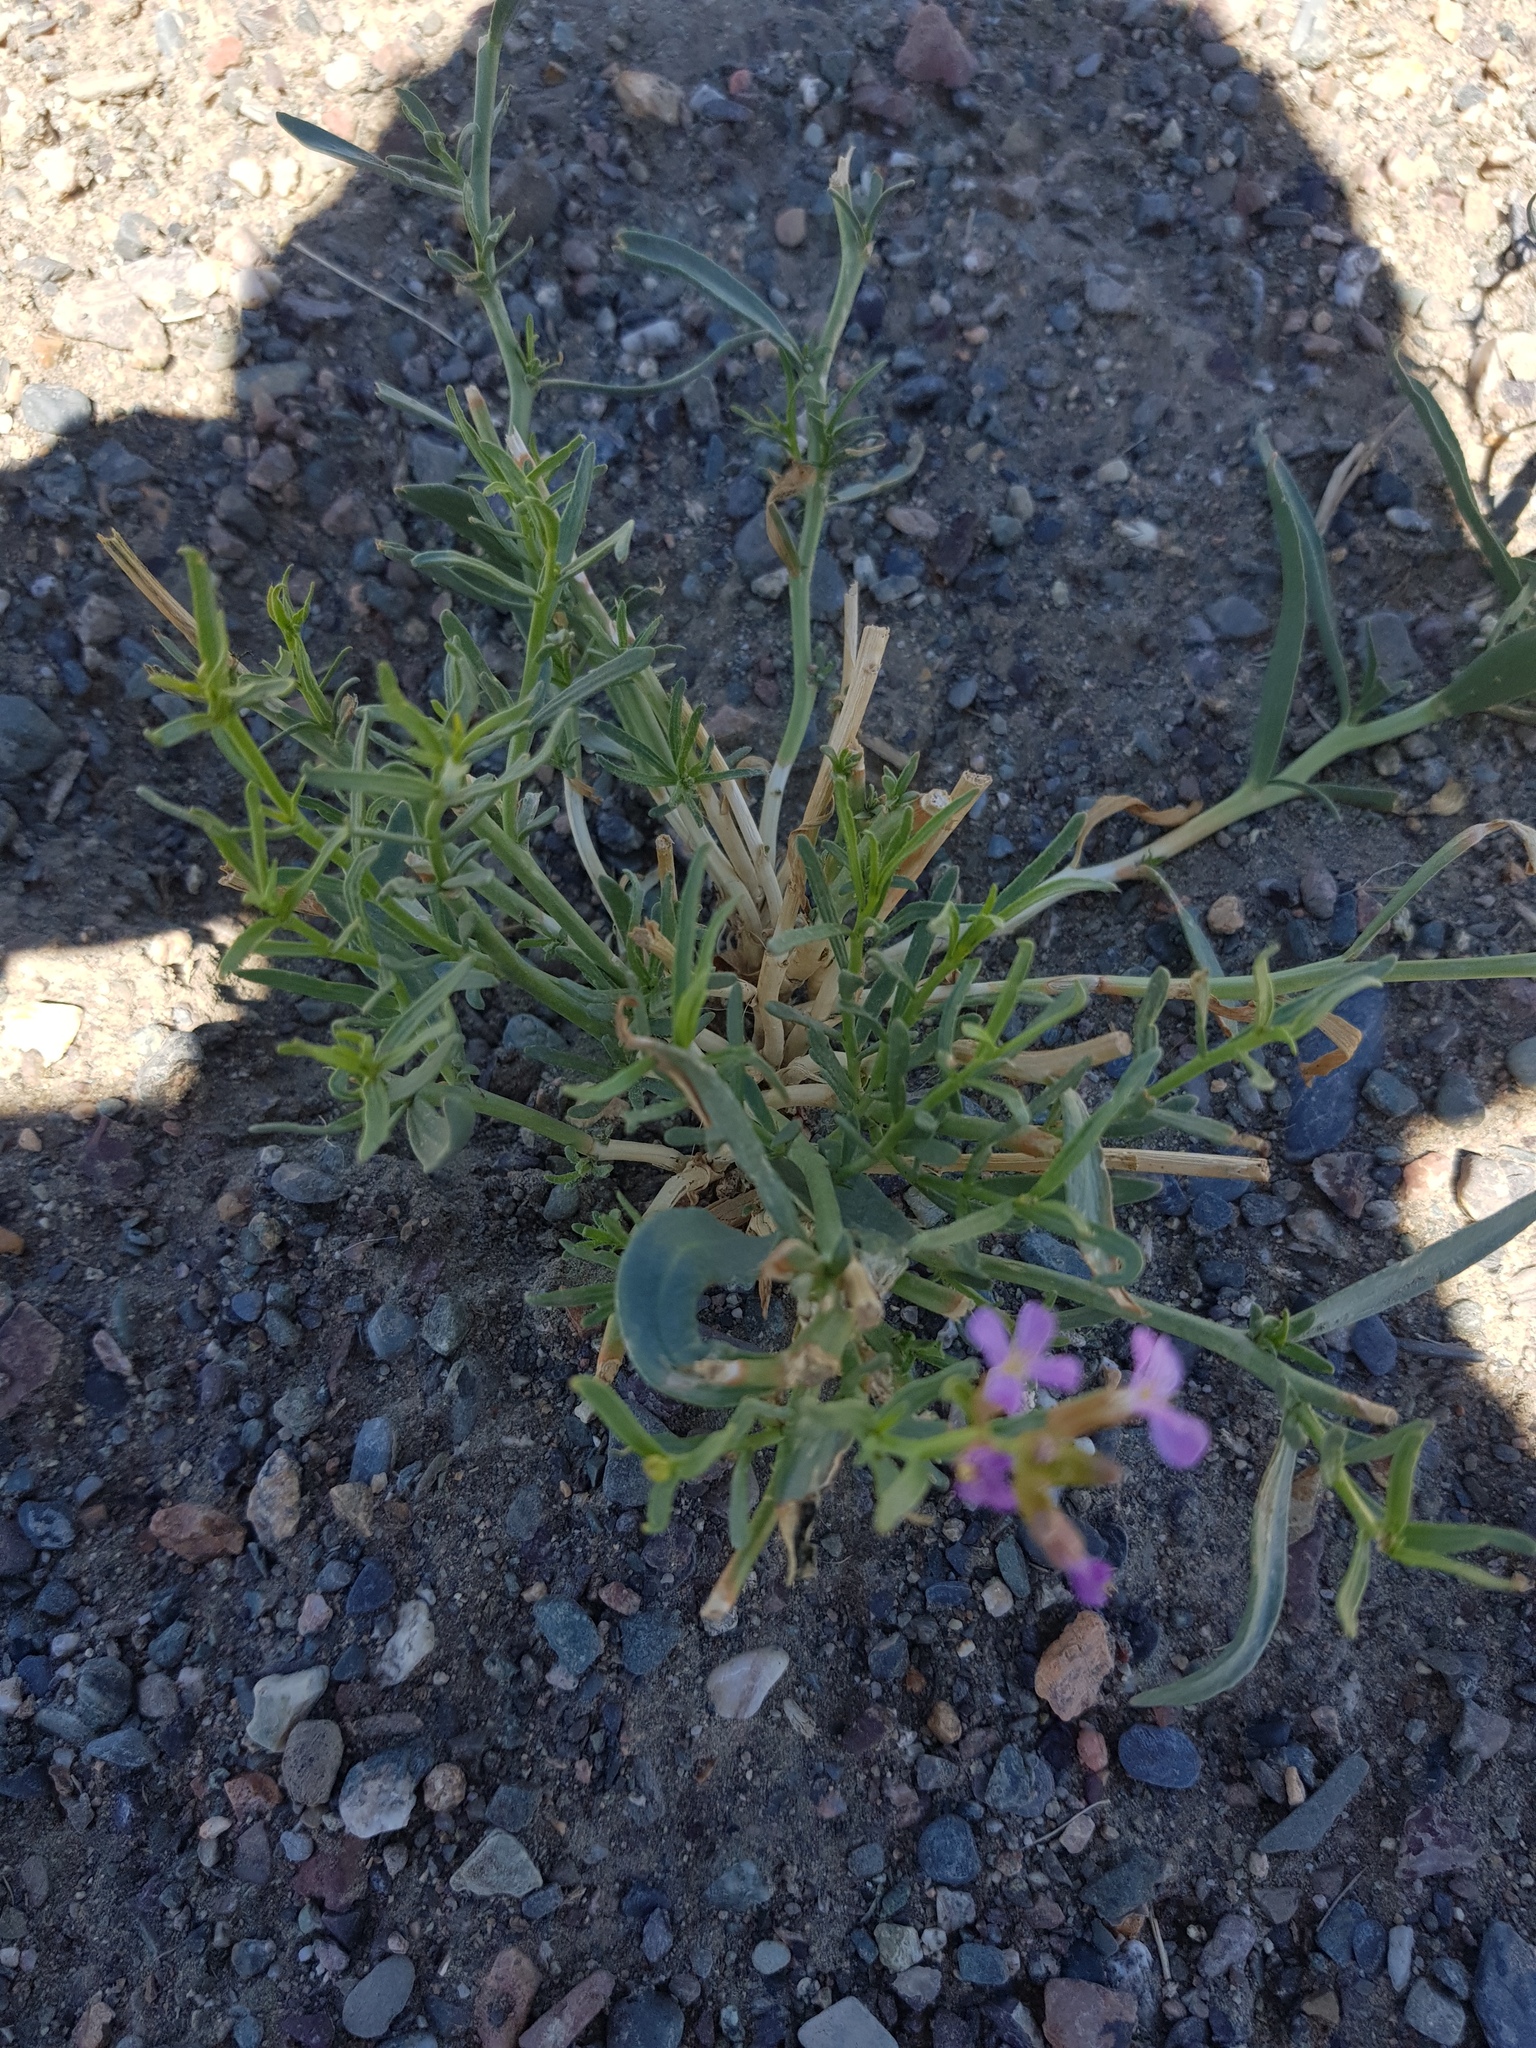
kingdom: Plantae
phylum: Tracheophyta
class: Magnoliopsida
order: Brassicales
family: Brassicaceae
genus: Dontostemon
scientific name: Dontostemon elegans
